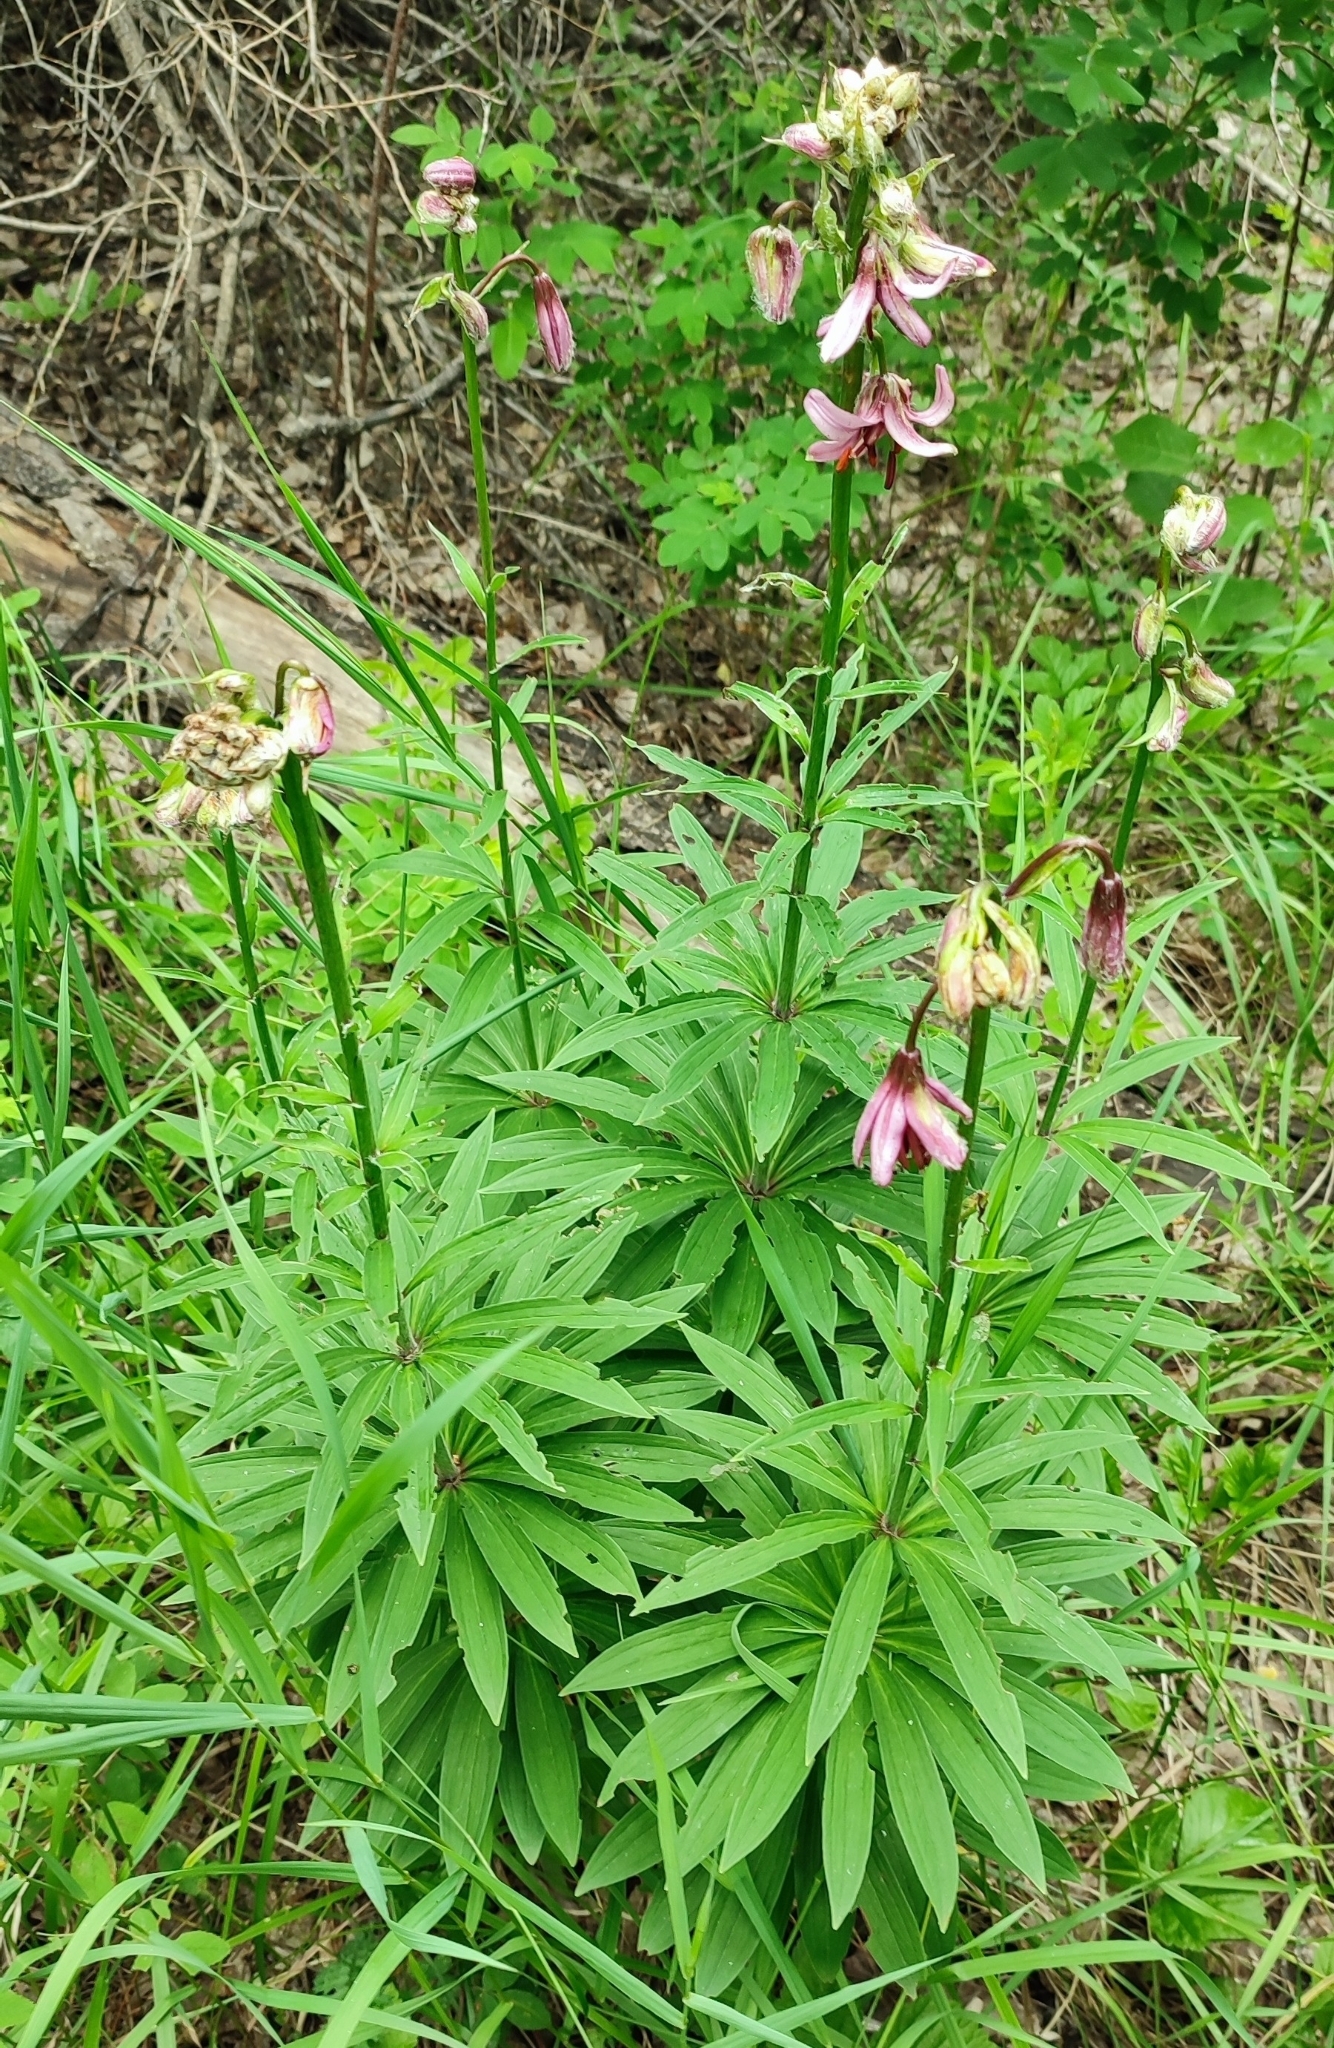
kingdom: Plantae
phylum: Tracheophyta
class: Liliopsida
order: Liliales
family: Liliaceae
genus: Lilium
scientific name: Lilium martagon
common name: Martagon lily
